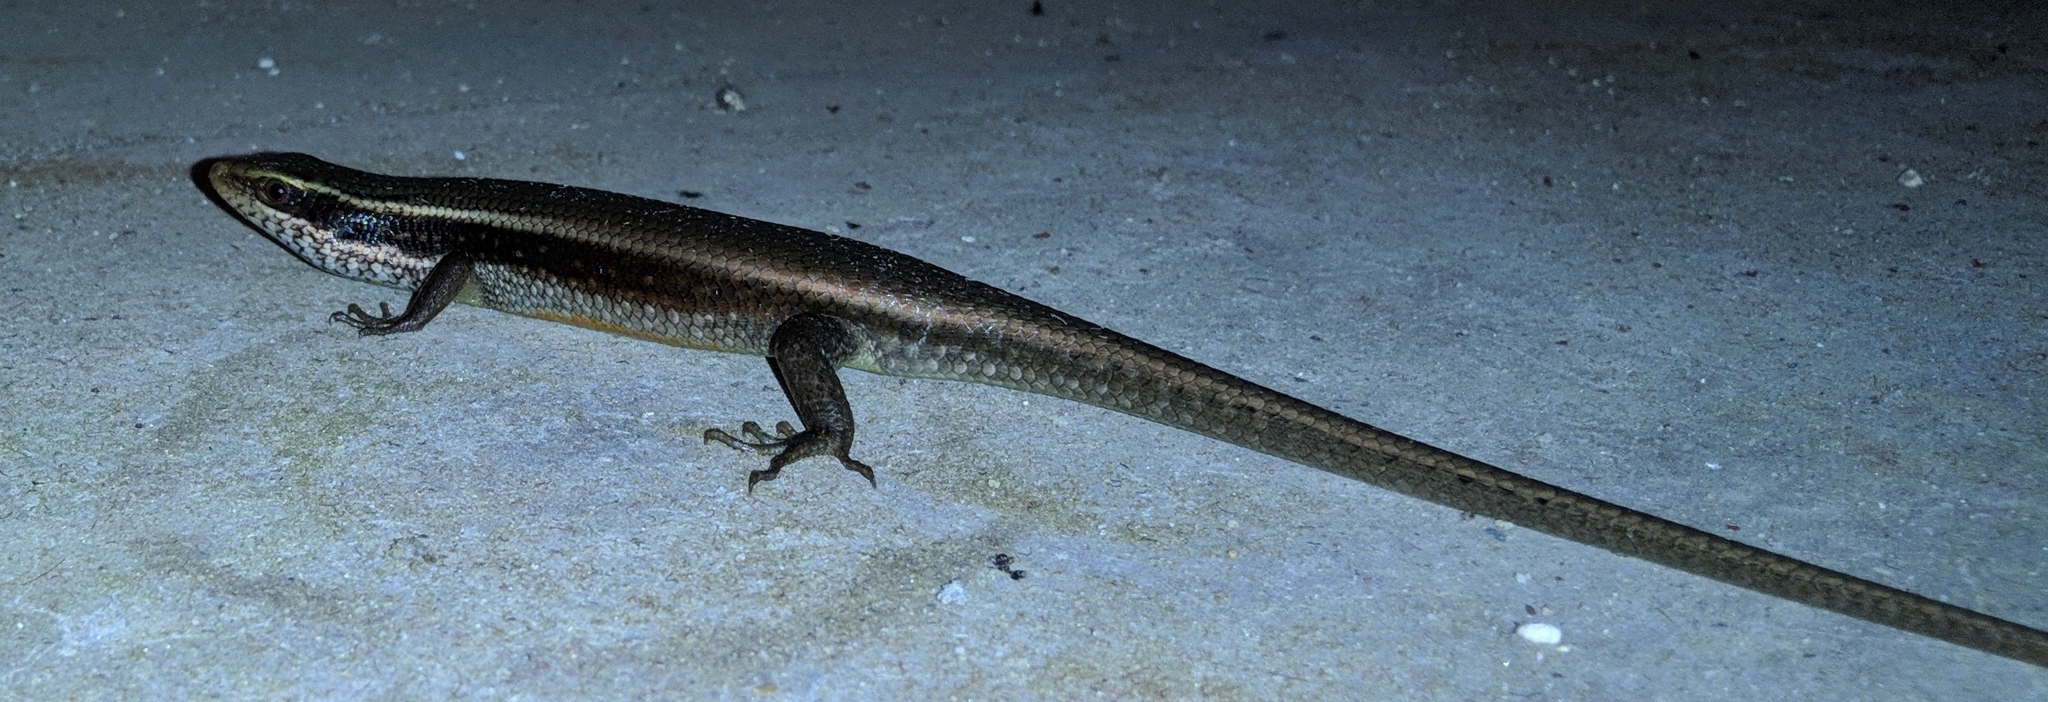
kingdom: Animalia
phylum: Chordata
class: Squamata
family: Scincidae
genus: Eutropis
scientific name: Eutropis carinata
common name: Keeled indian mabuya
